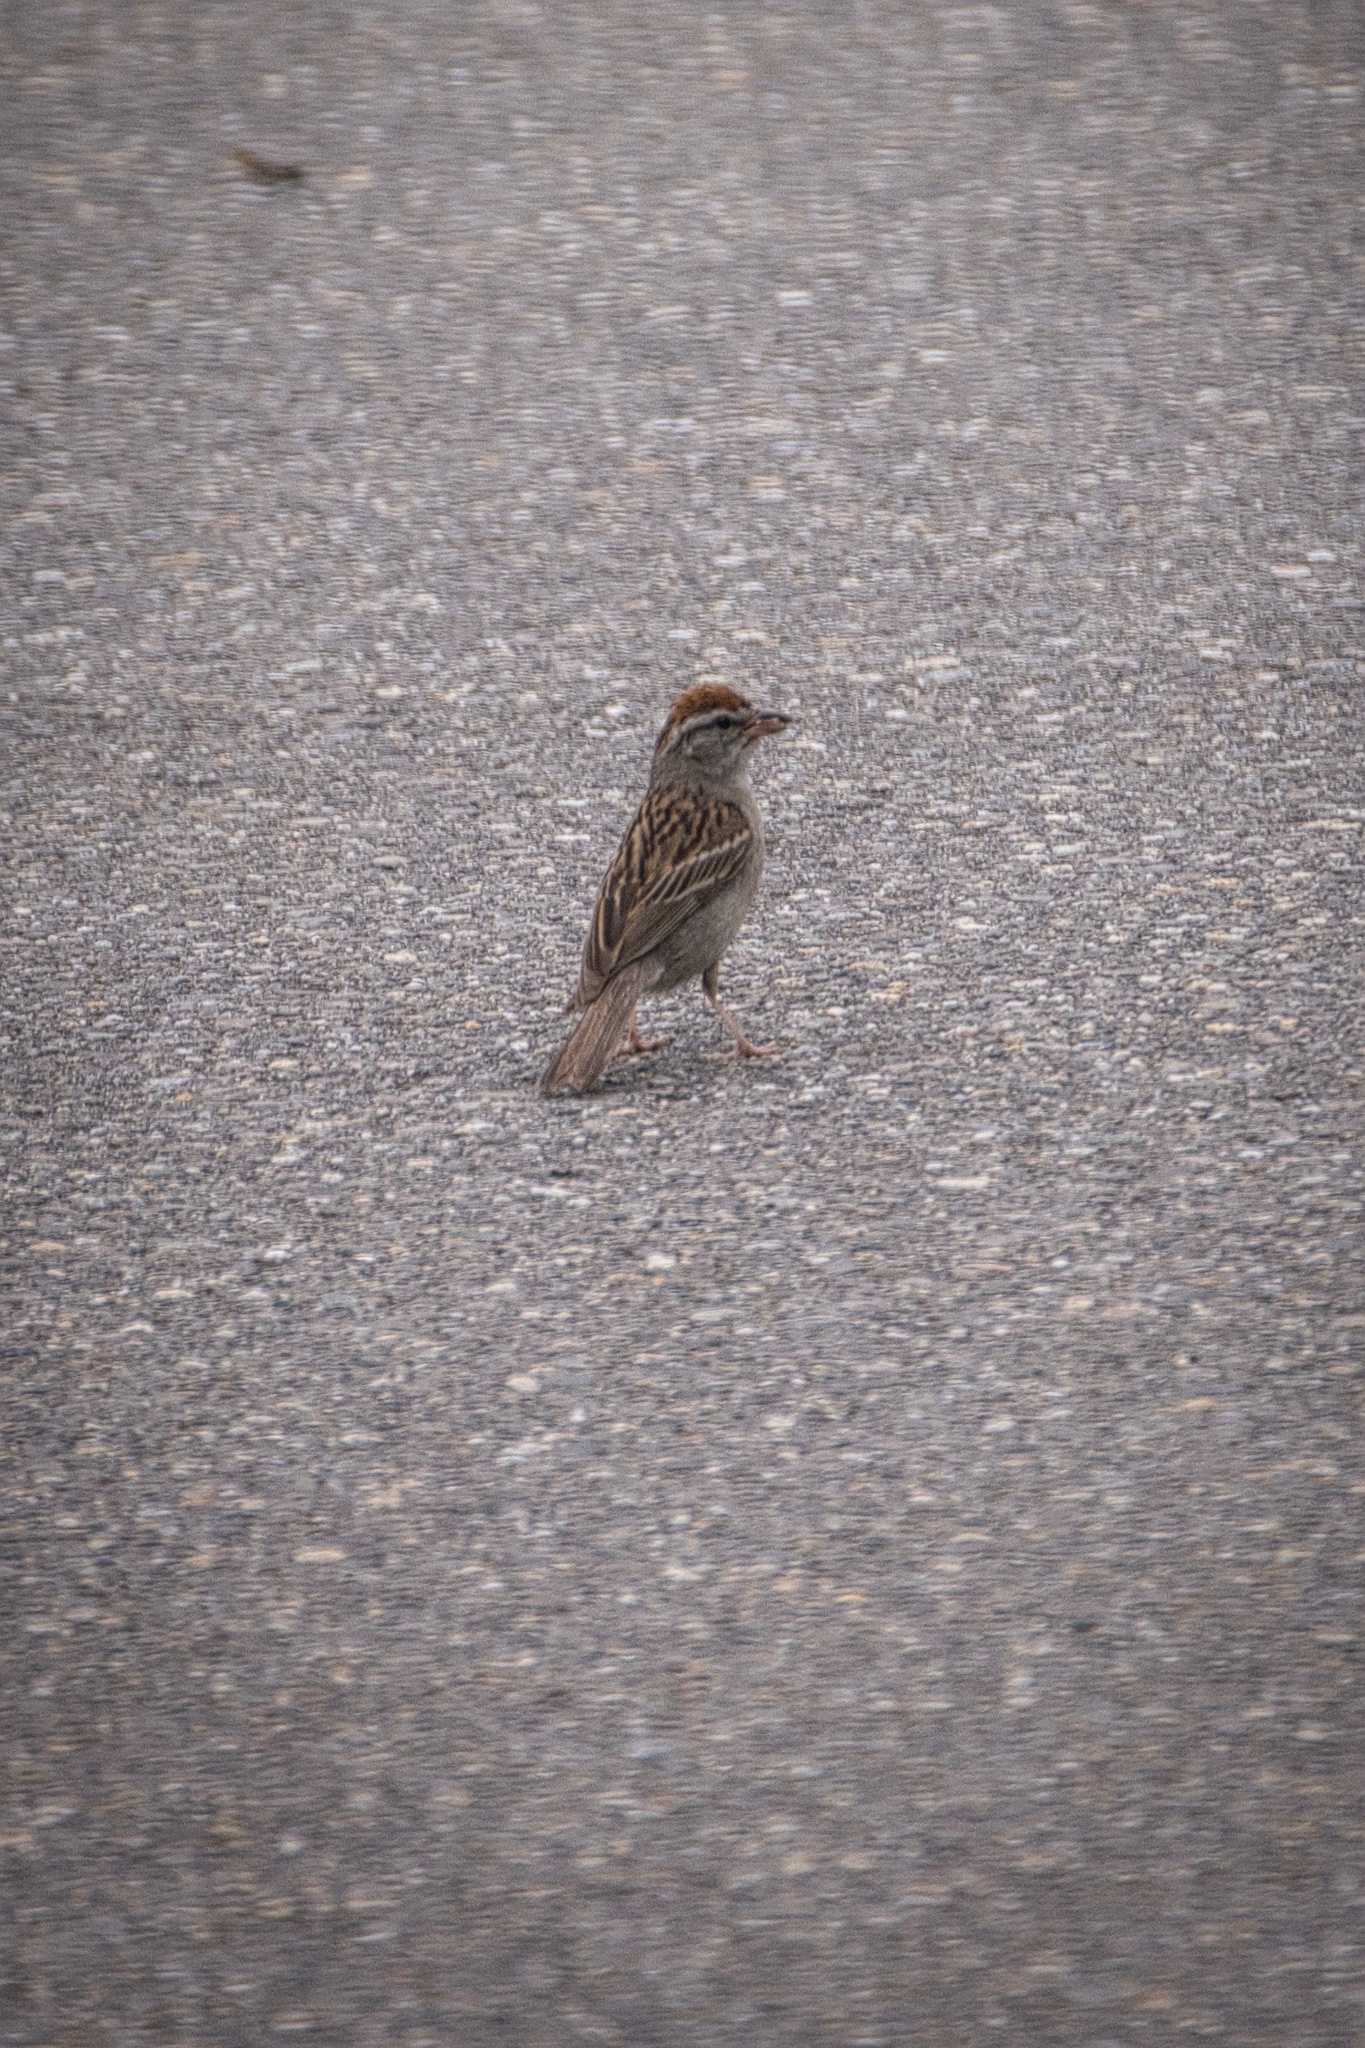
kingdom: Animalia
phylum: Chordata
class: Aves
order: Passeriformes
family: Passerellidae
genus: Spizella
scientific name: Spizella passerina
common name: Chipping sparrow
